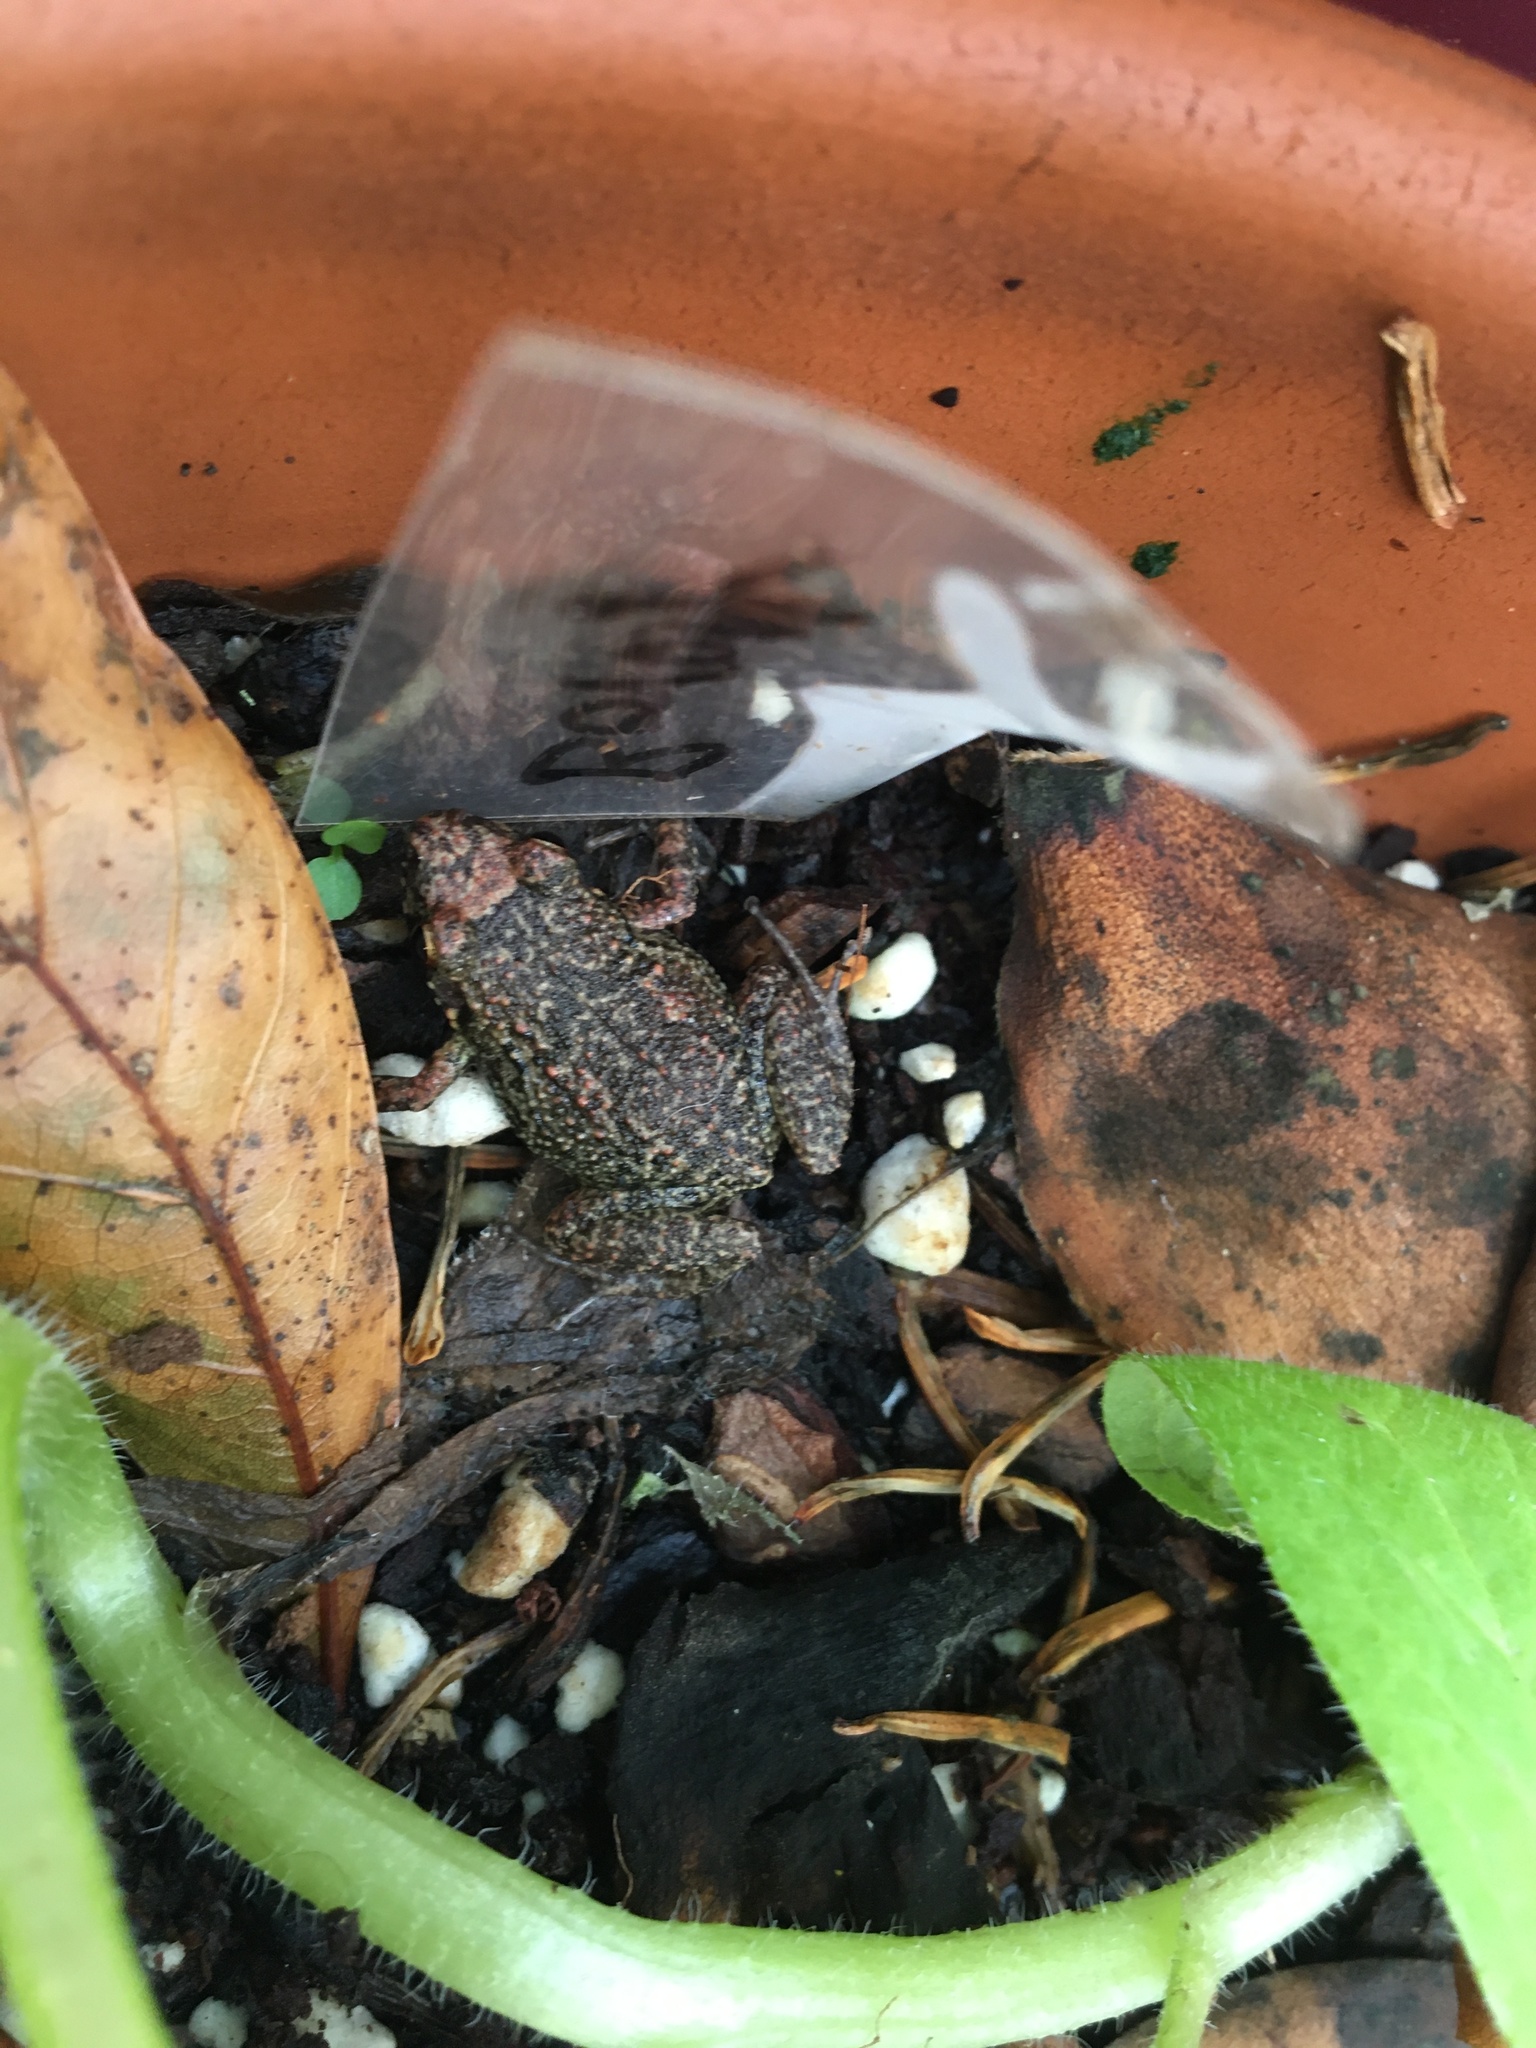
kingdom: Animalia
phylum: Chordata
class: Amphibia
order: Anura
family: Eleutherodactylidae
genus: Eleutherodactylus
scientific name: Eleutherodactylus planirostris
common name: Greenhouse frog
